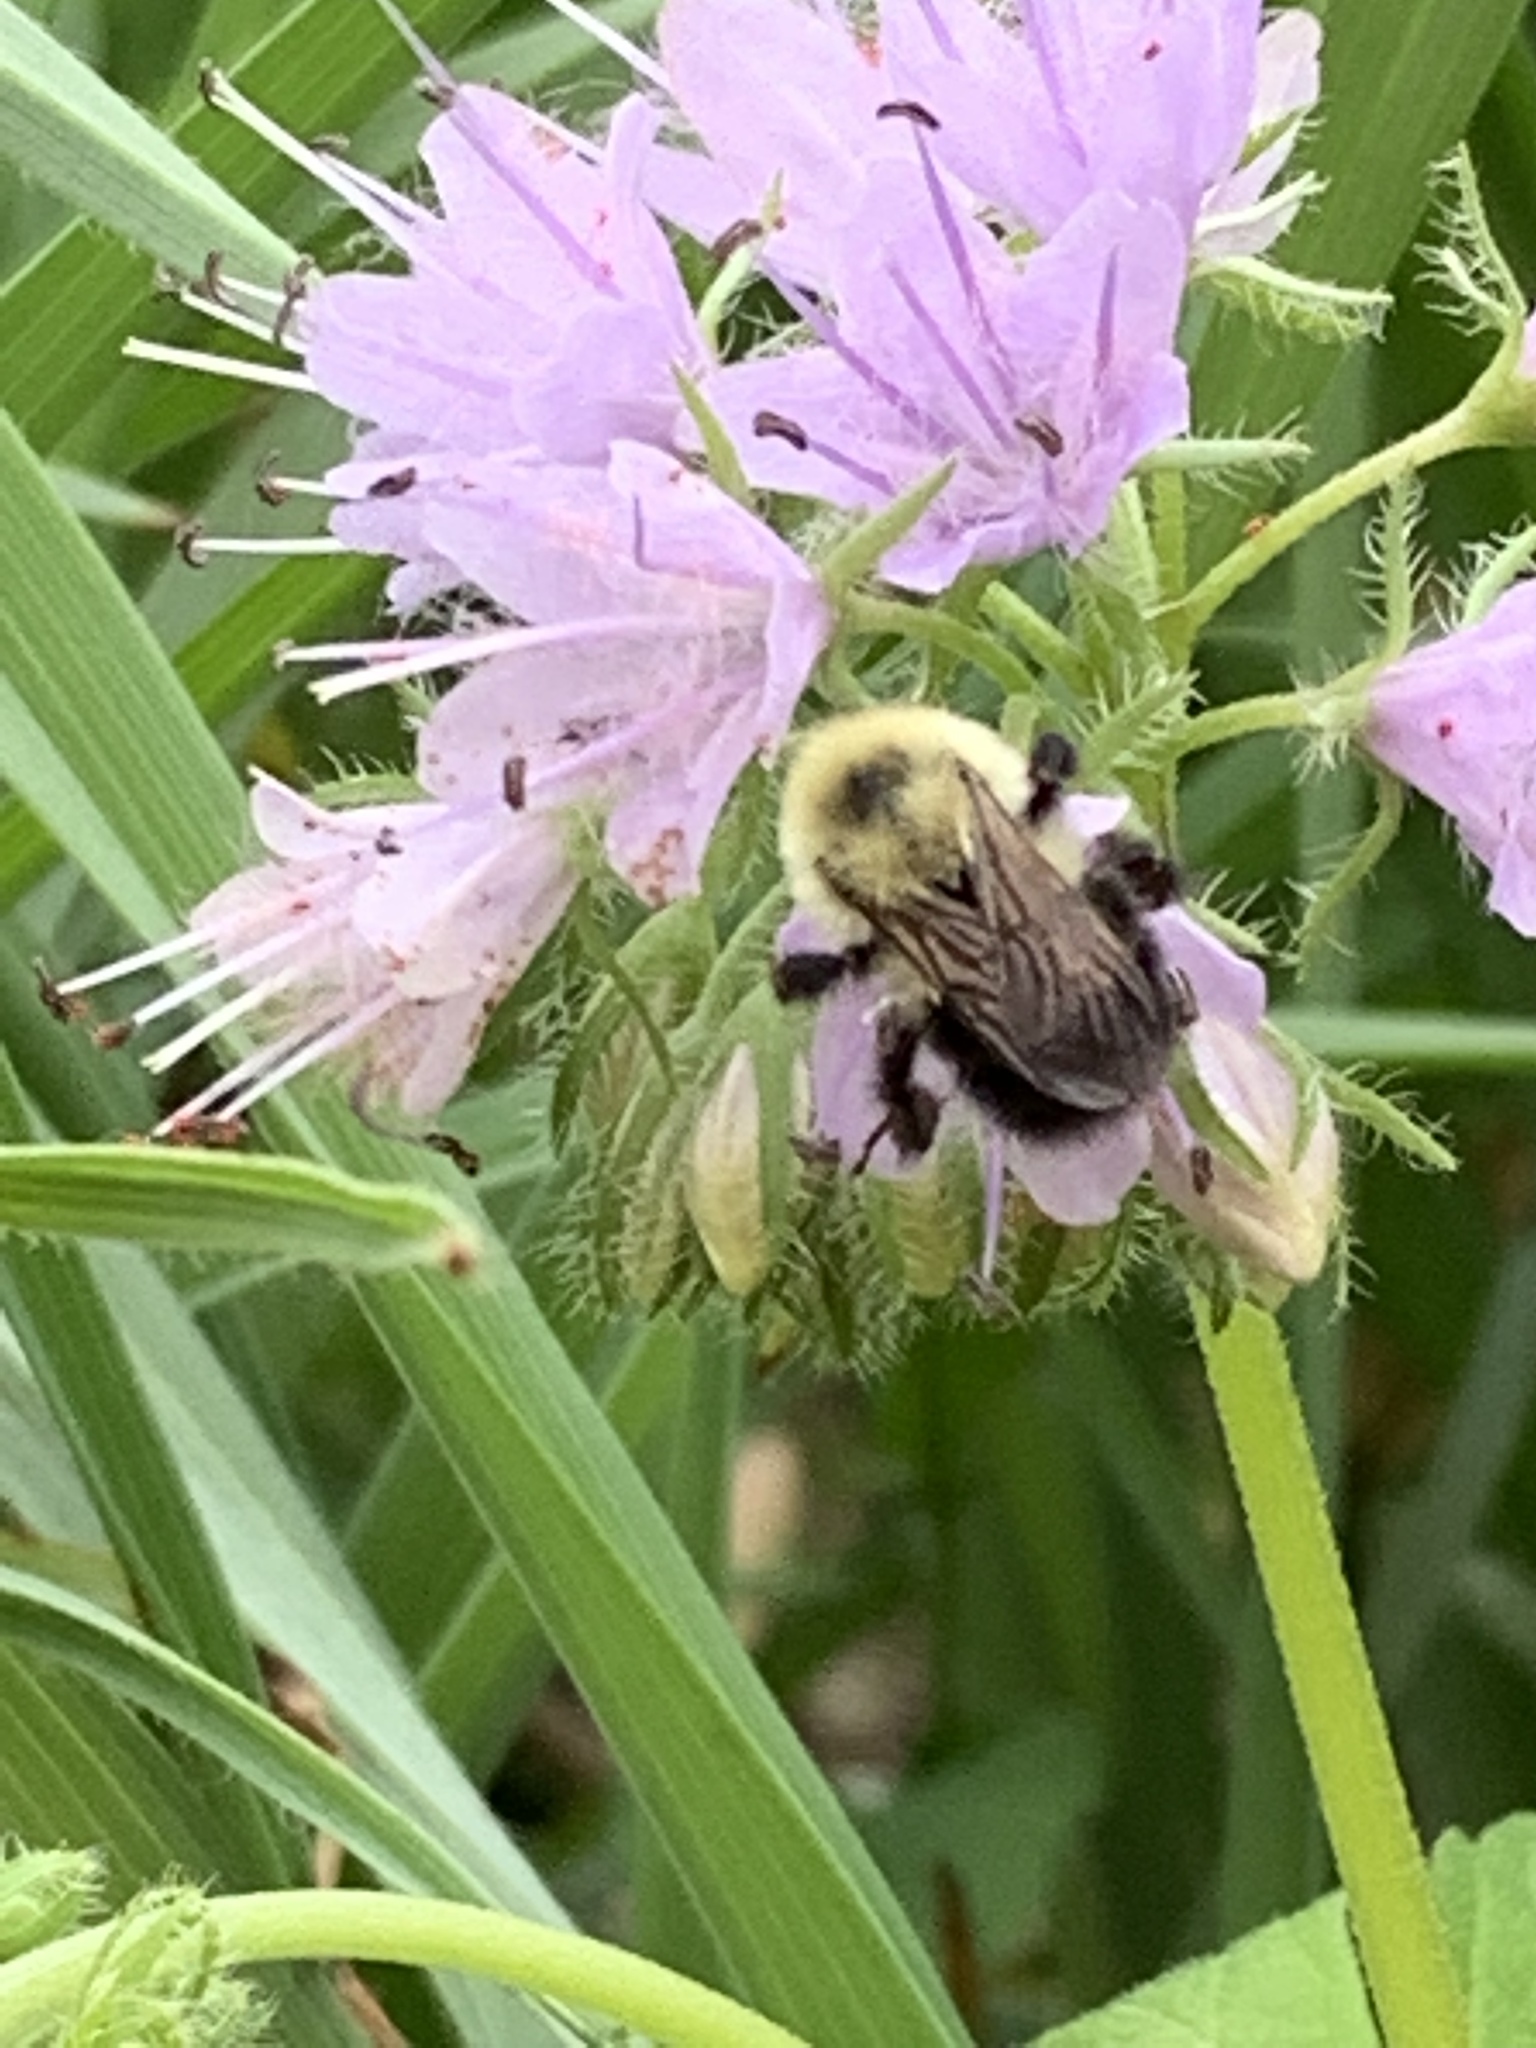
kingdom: Animalia
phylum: Arthropoda
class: Insecta
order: Hymenoptera
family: Apidae
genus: Bombus
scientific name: Bombus bimaculatus
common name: Two-spotted bumble bee
